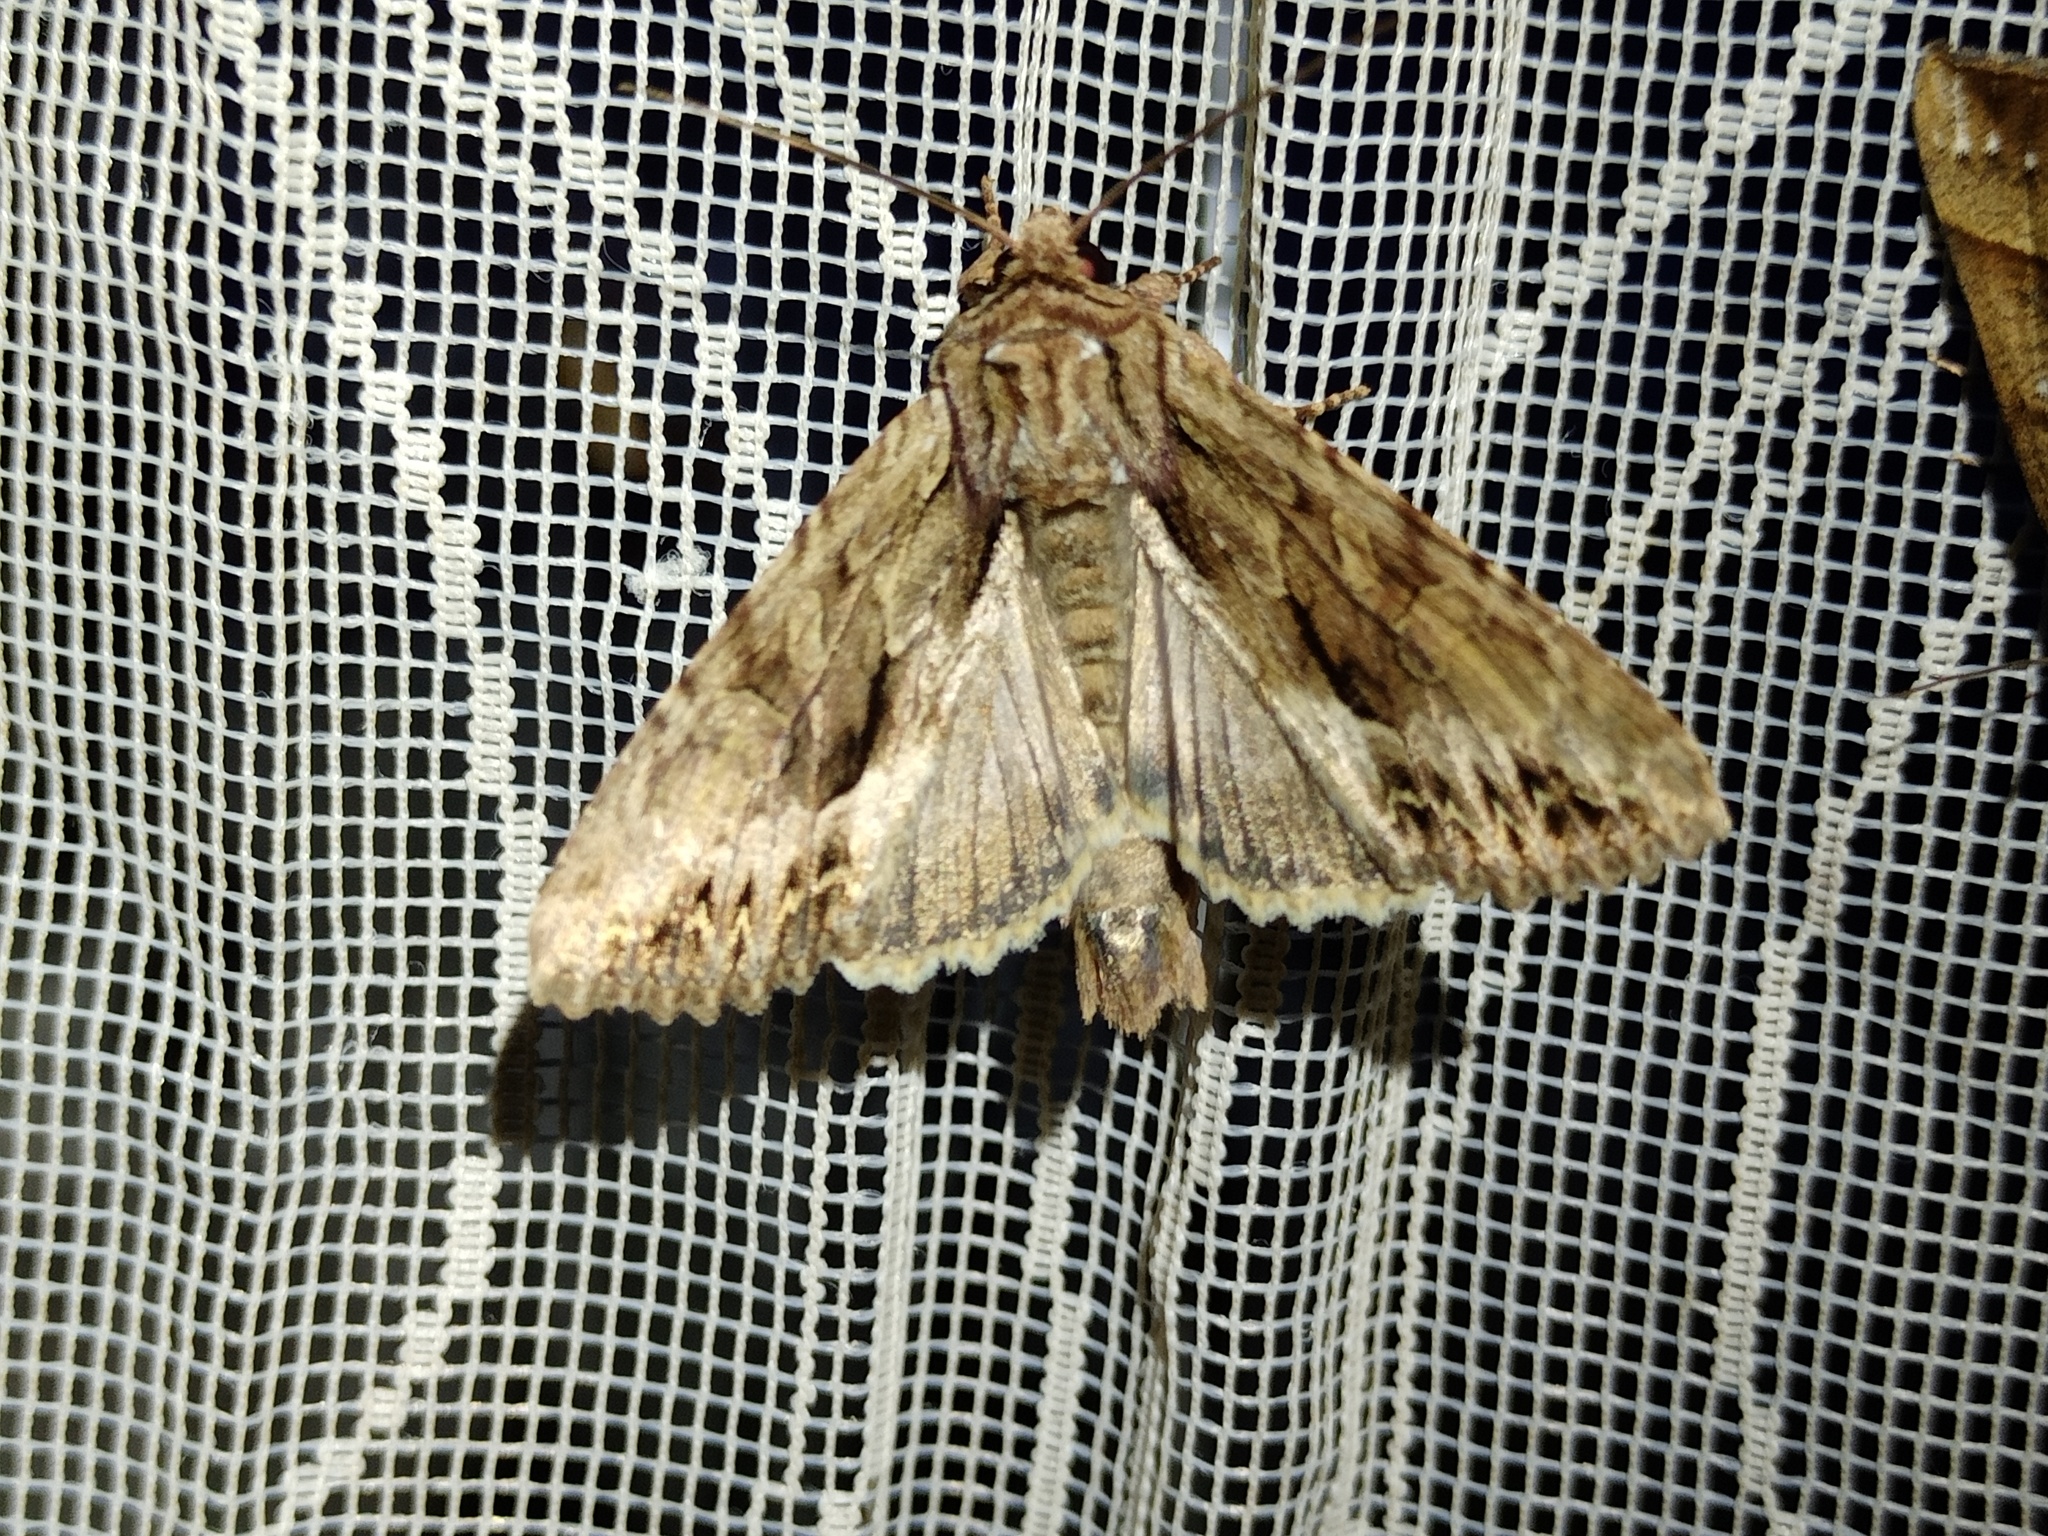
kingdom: Animalia
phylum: Arthropoda
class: Insecta
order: Lepidoptera
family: Noctuidae
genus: Apamea
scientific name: Apamea monoglypha
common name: Dark arches
